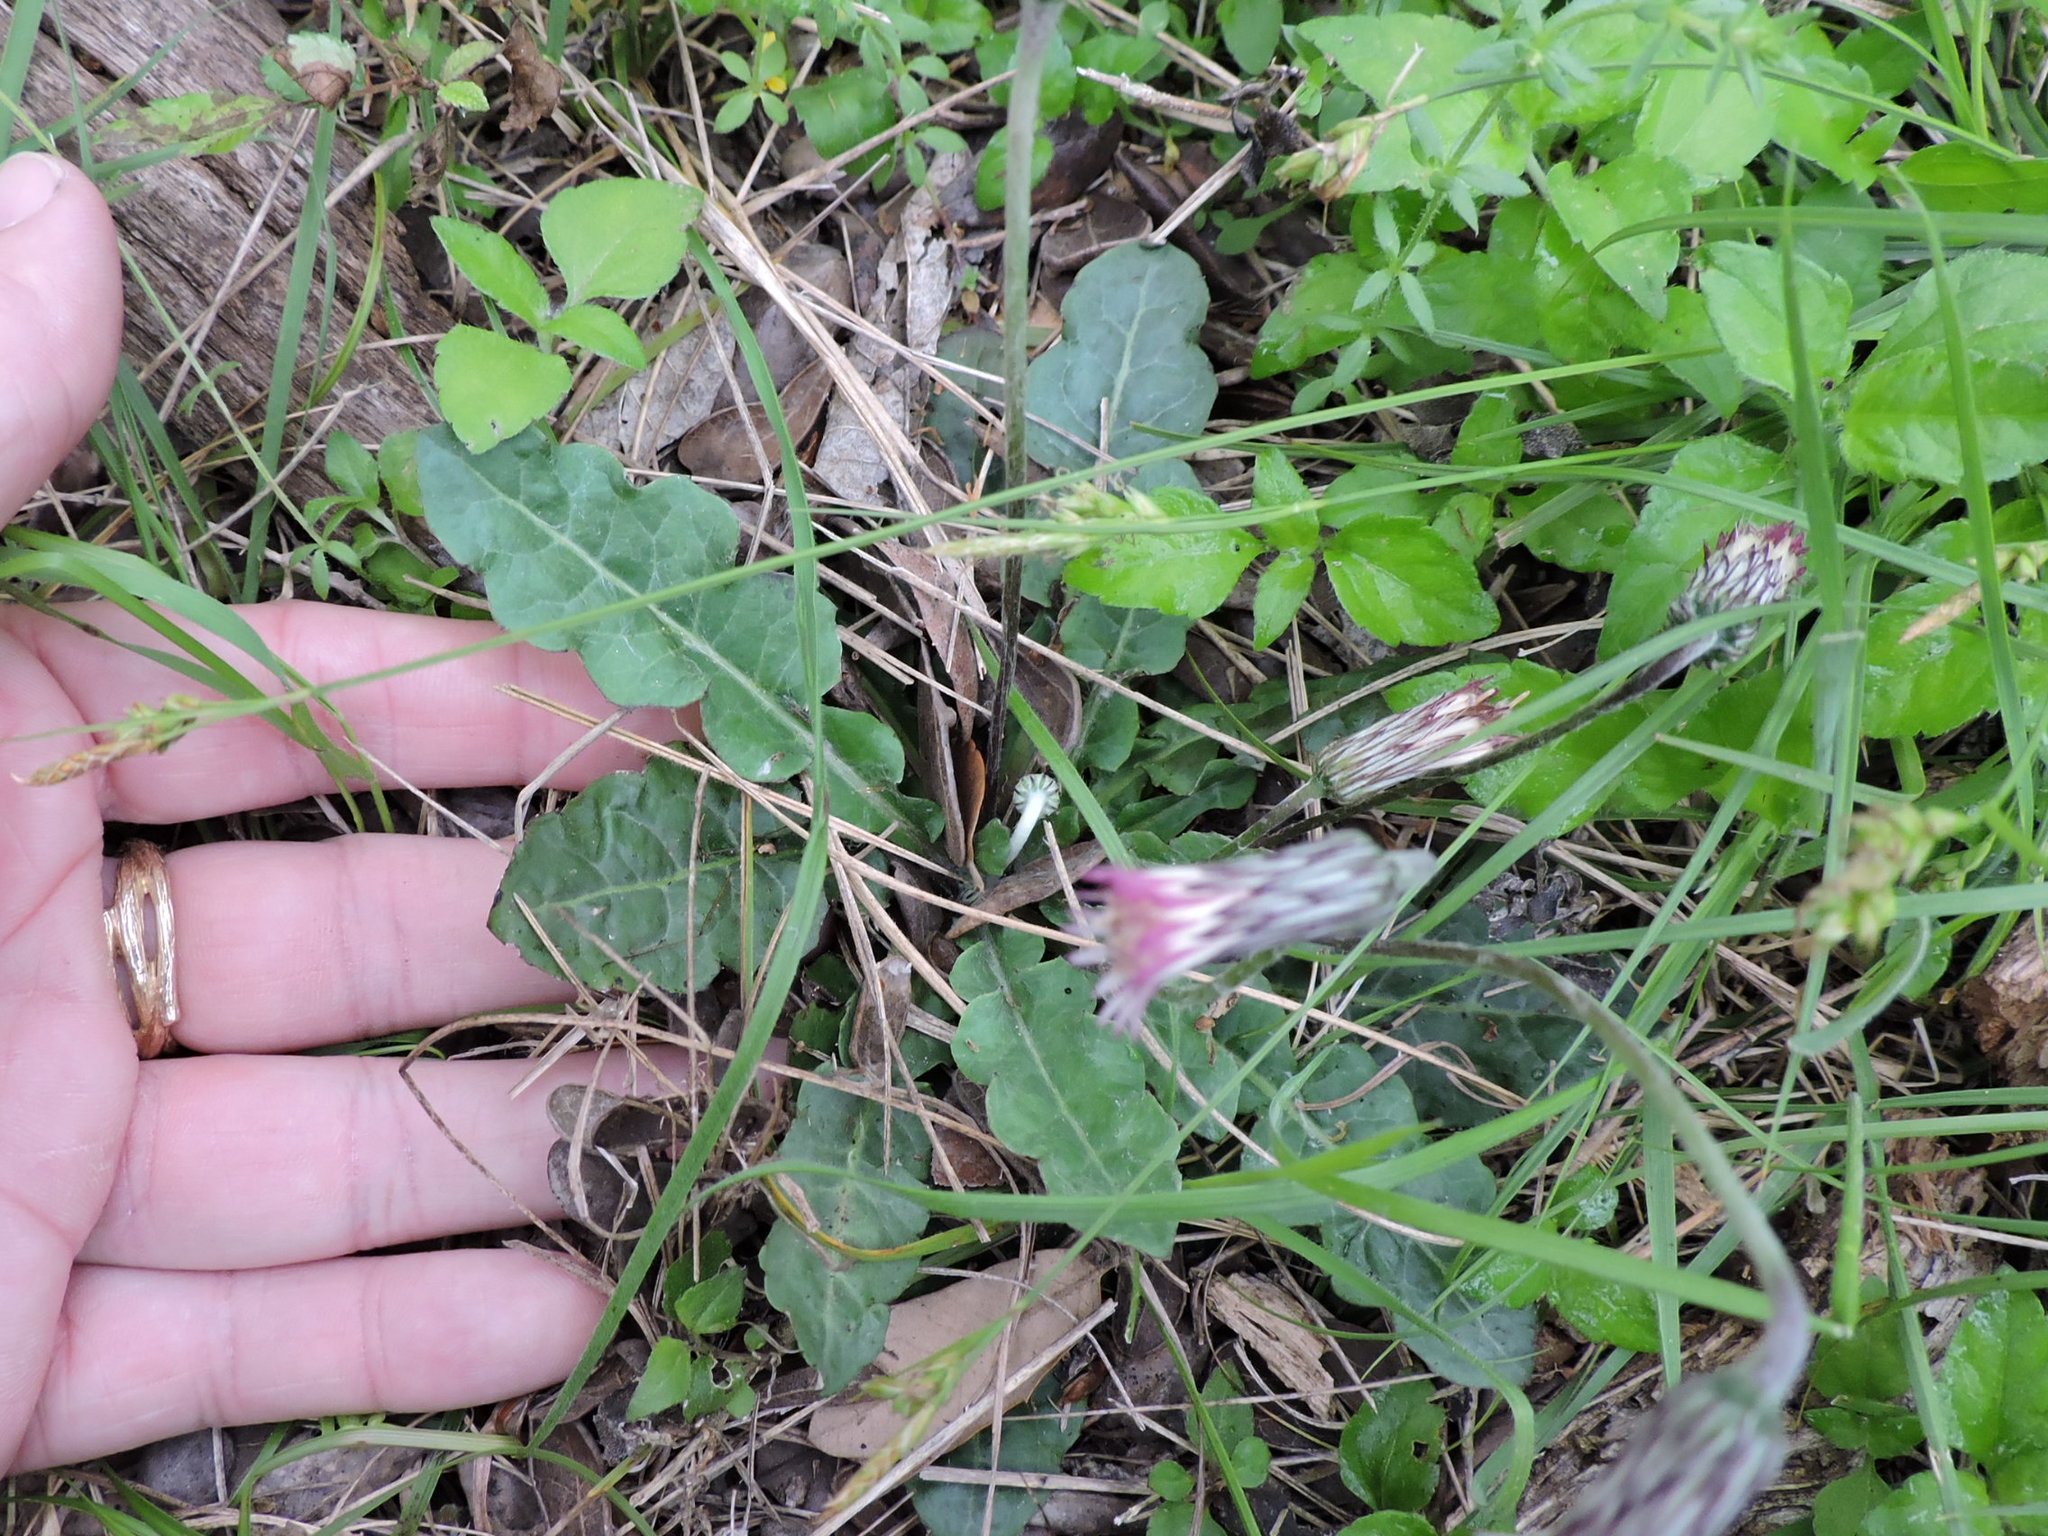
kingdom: Plantae
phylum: Tracheophyta
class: Magnoliopsida
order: Asterales
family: Asteraceae
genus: Chaptalia
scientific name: Chaptalia nutans
